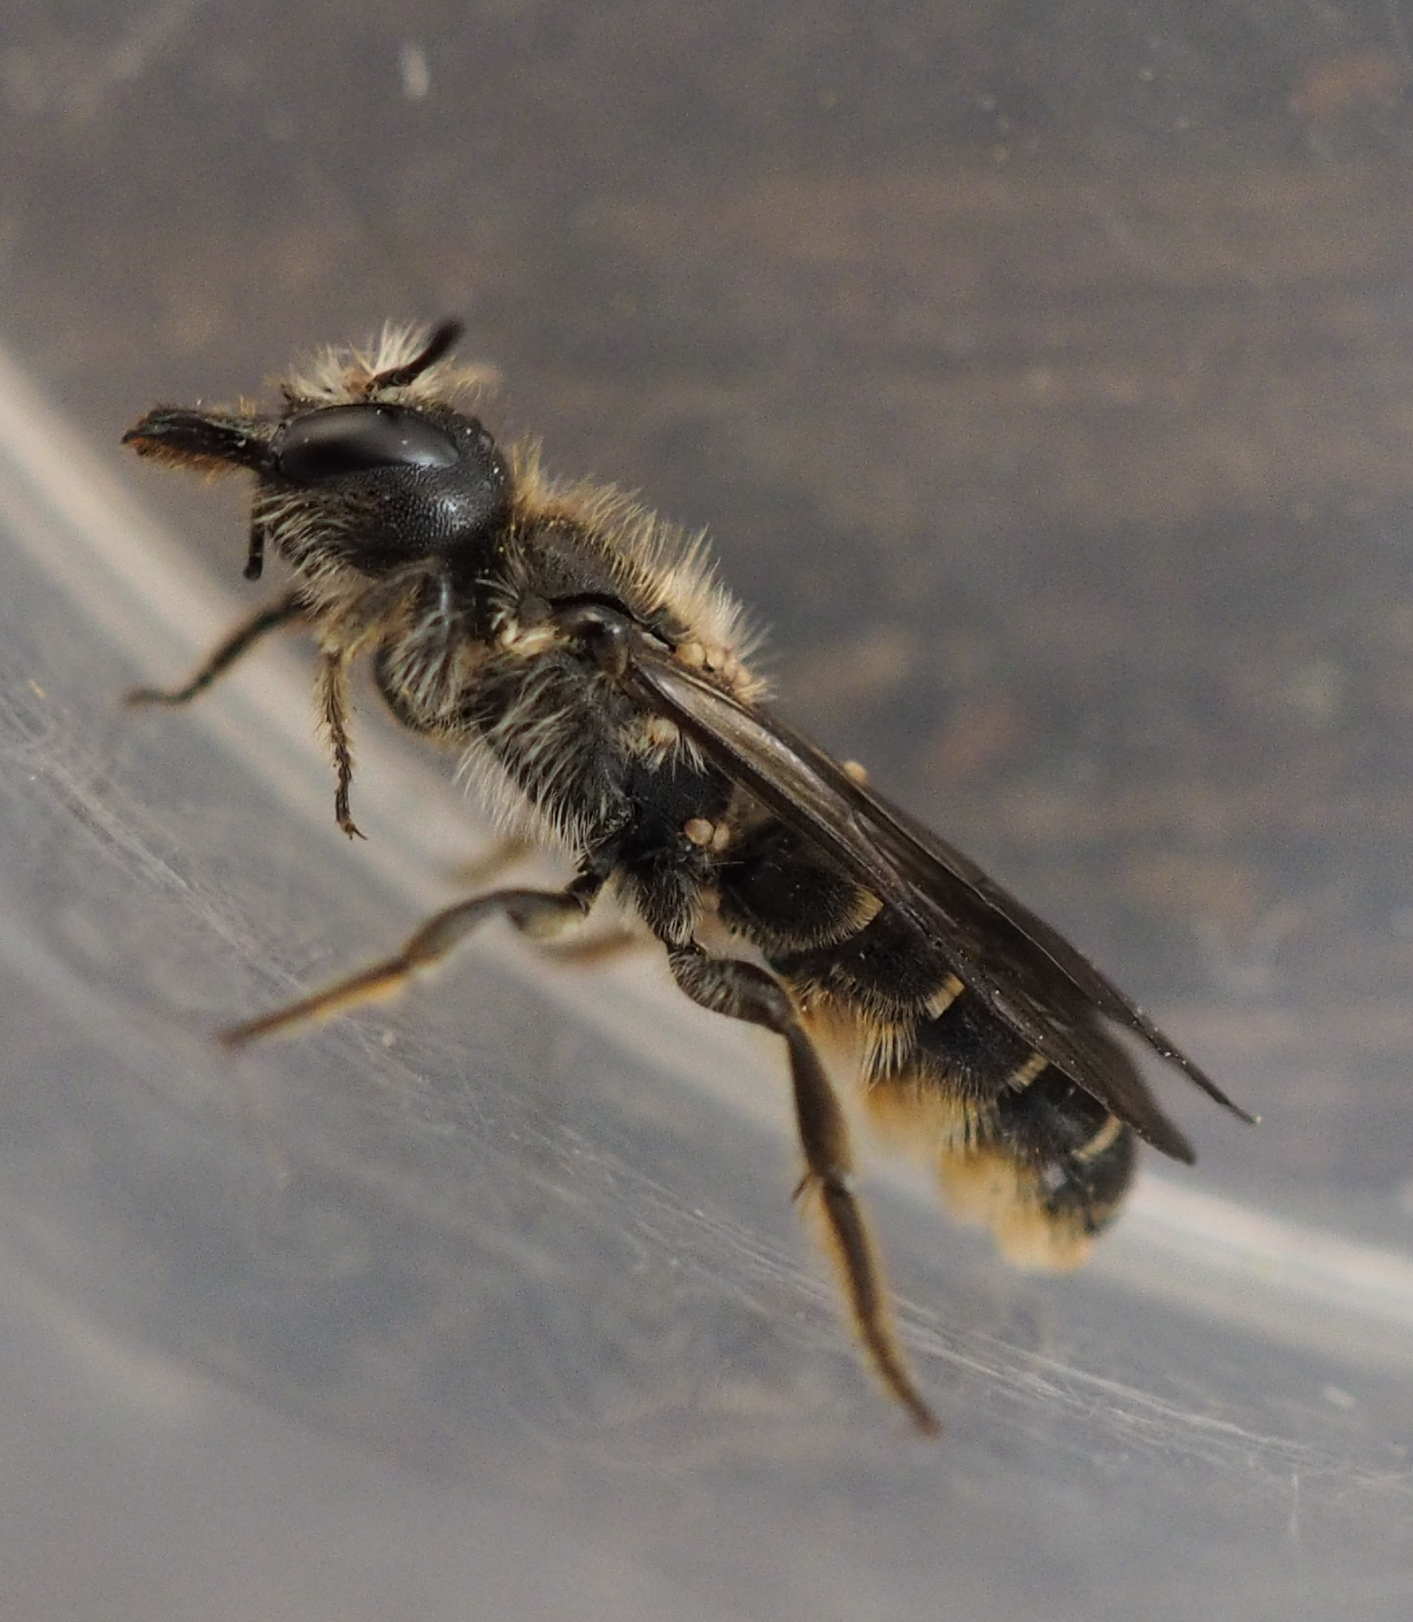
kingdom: Animalia
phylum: Arthropoda
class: Insecta
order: Hymenoptera
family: Megachilidae
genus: Chelostoma
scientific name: Chelostoma florisomne
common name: Sleepy carpenter bee
